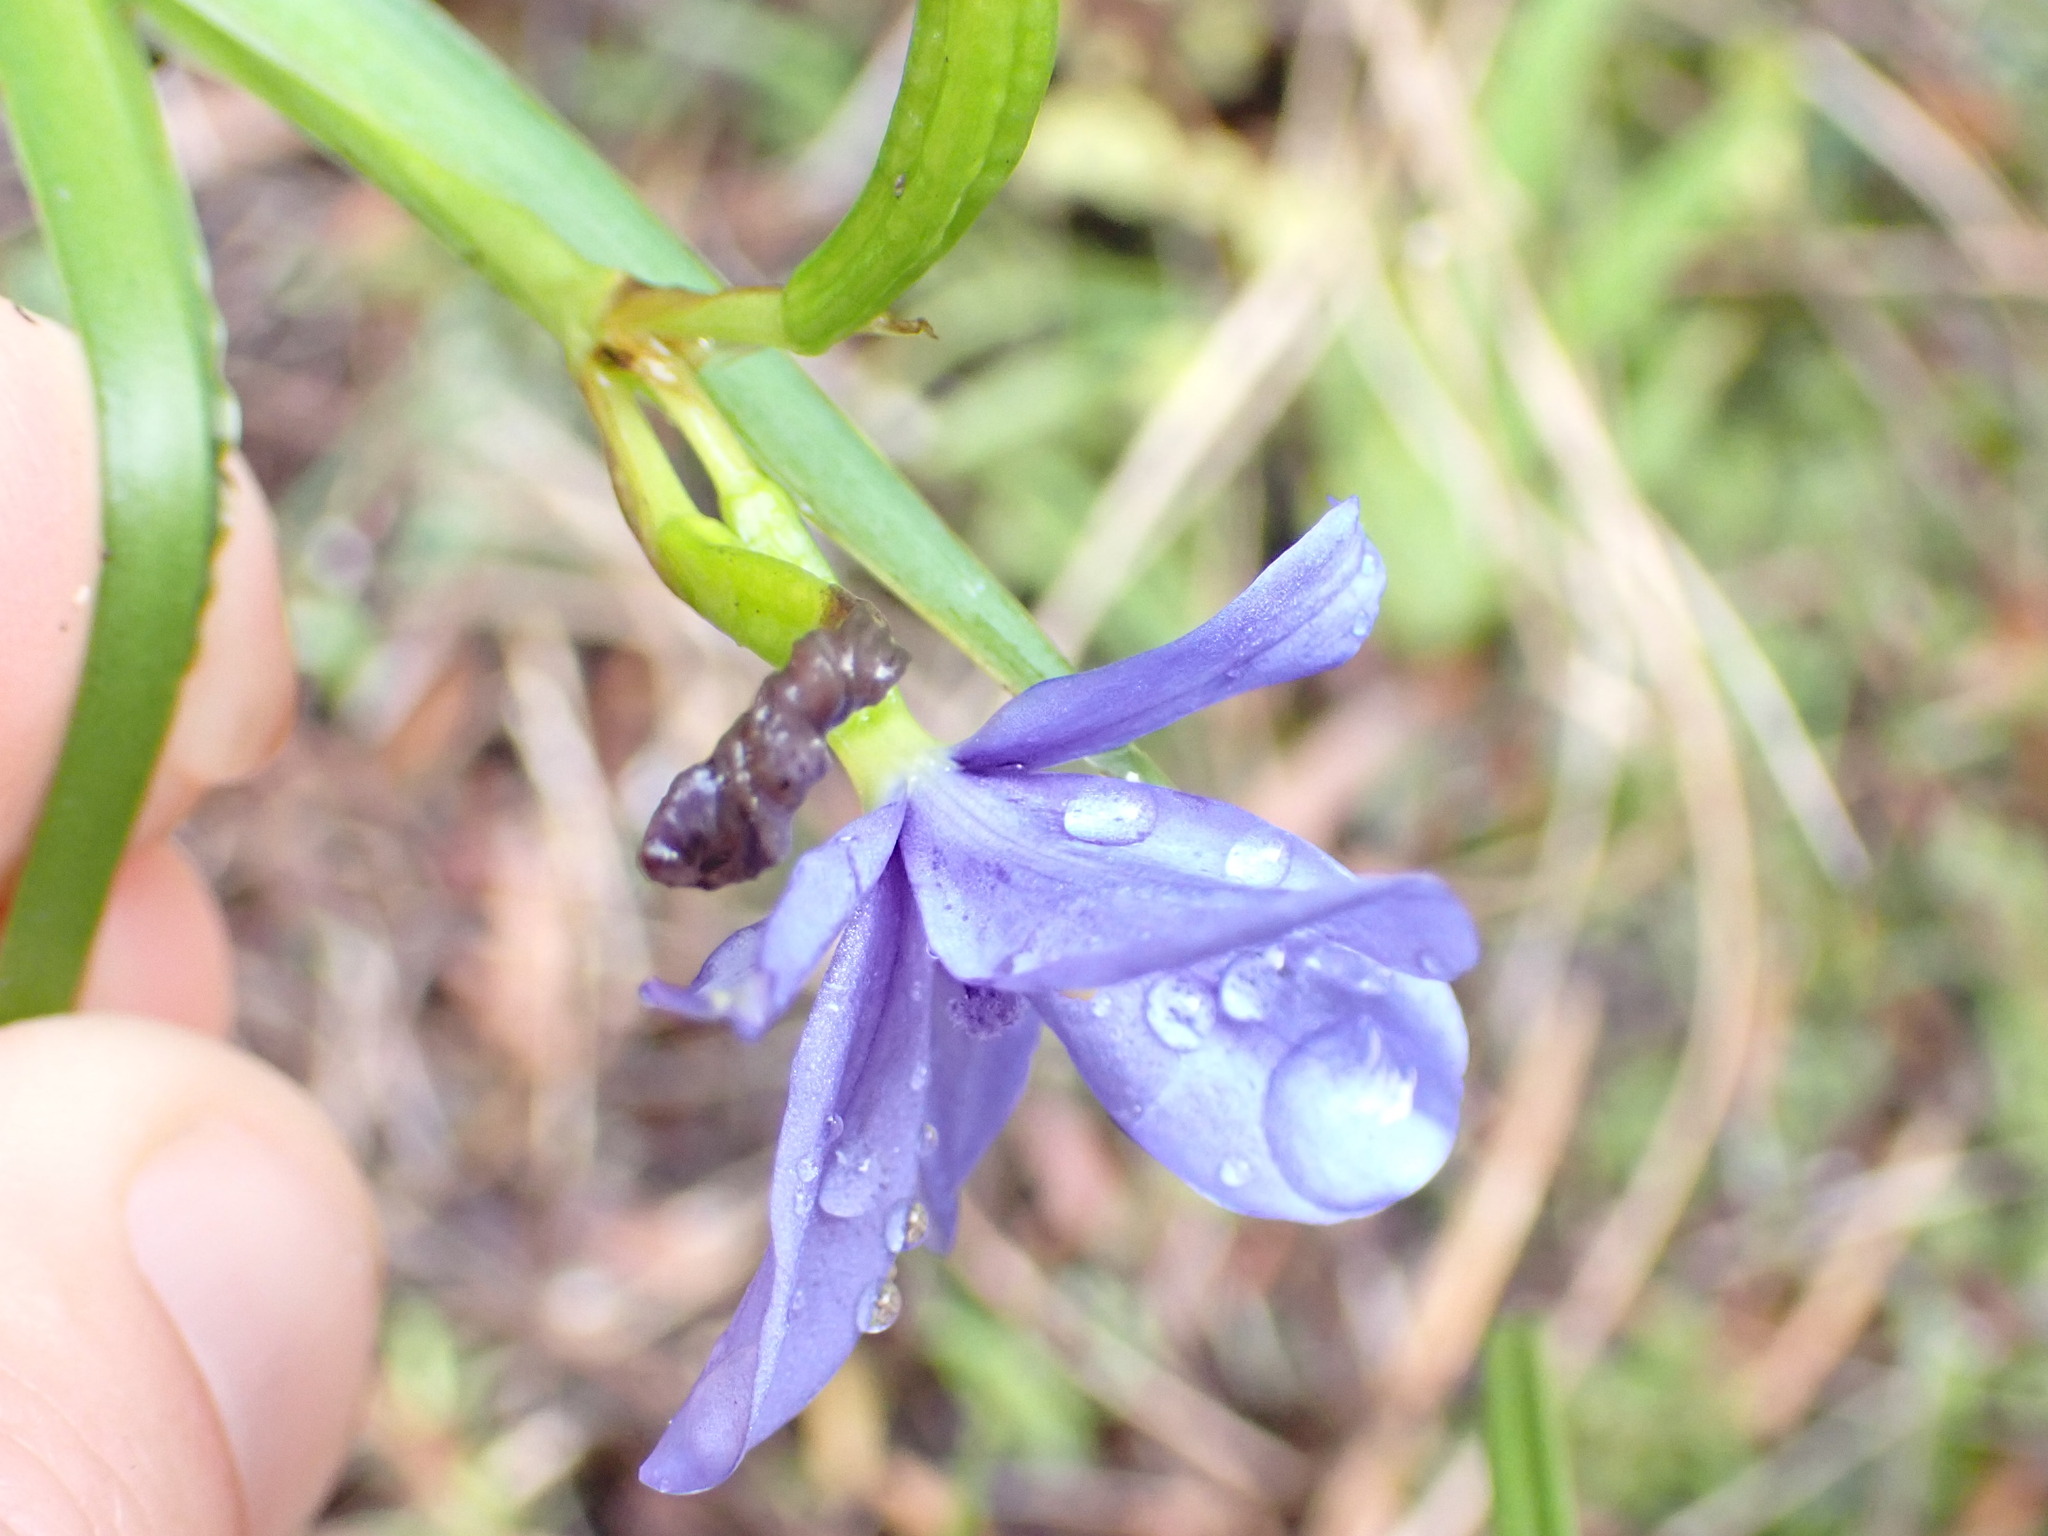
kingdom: Plantae
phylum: Tracheophyta
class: Liliopsida
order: Asparagales
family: Iridaceae
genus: Aristea
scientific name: Aristea ecklonii
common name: Blue corn-lily
